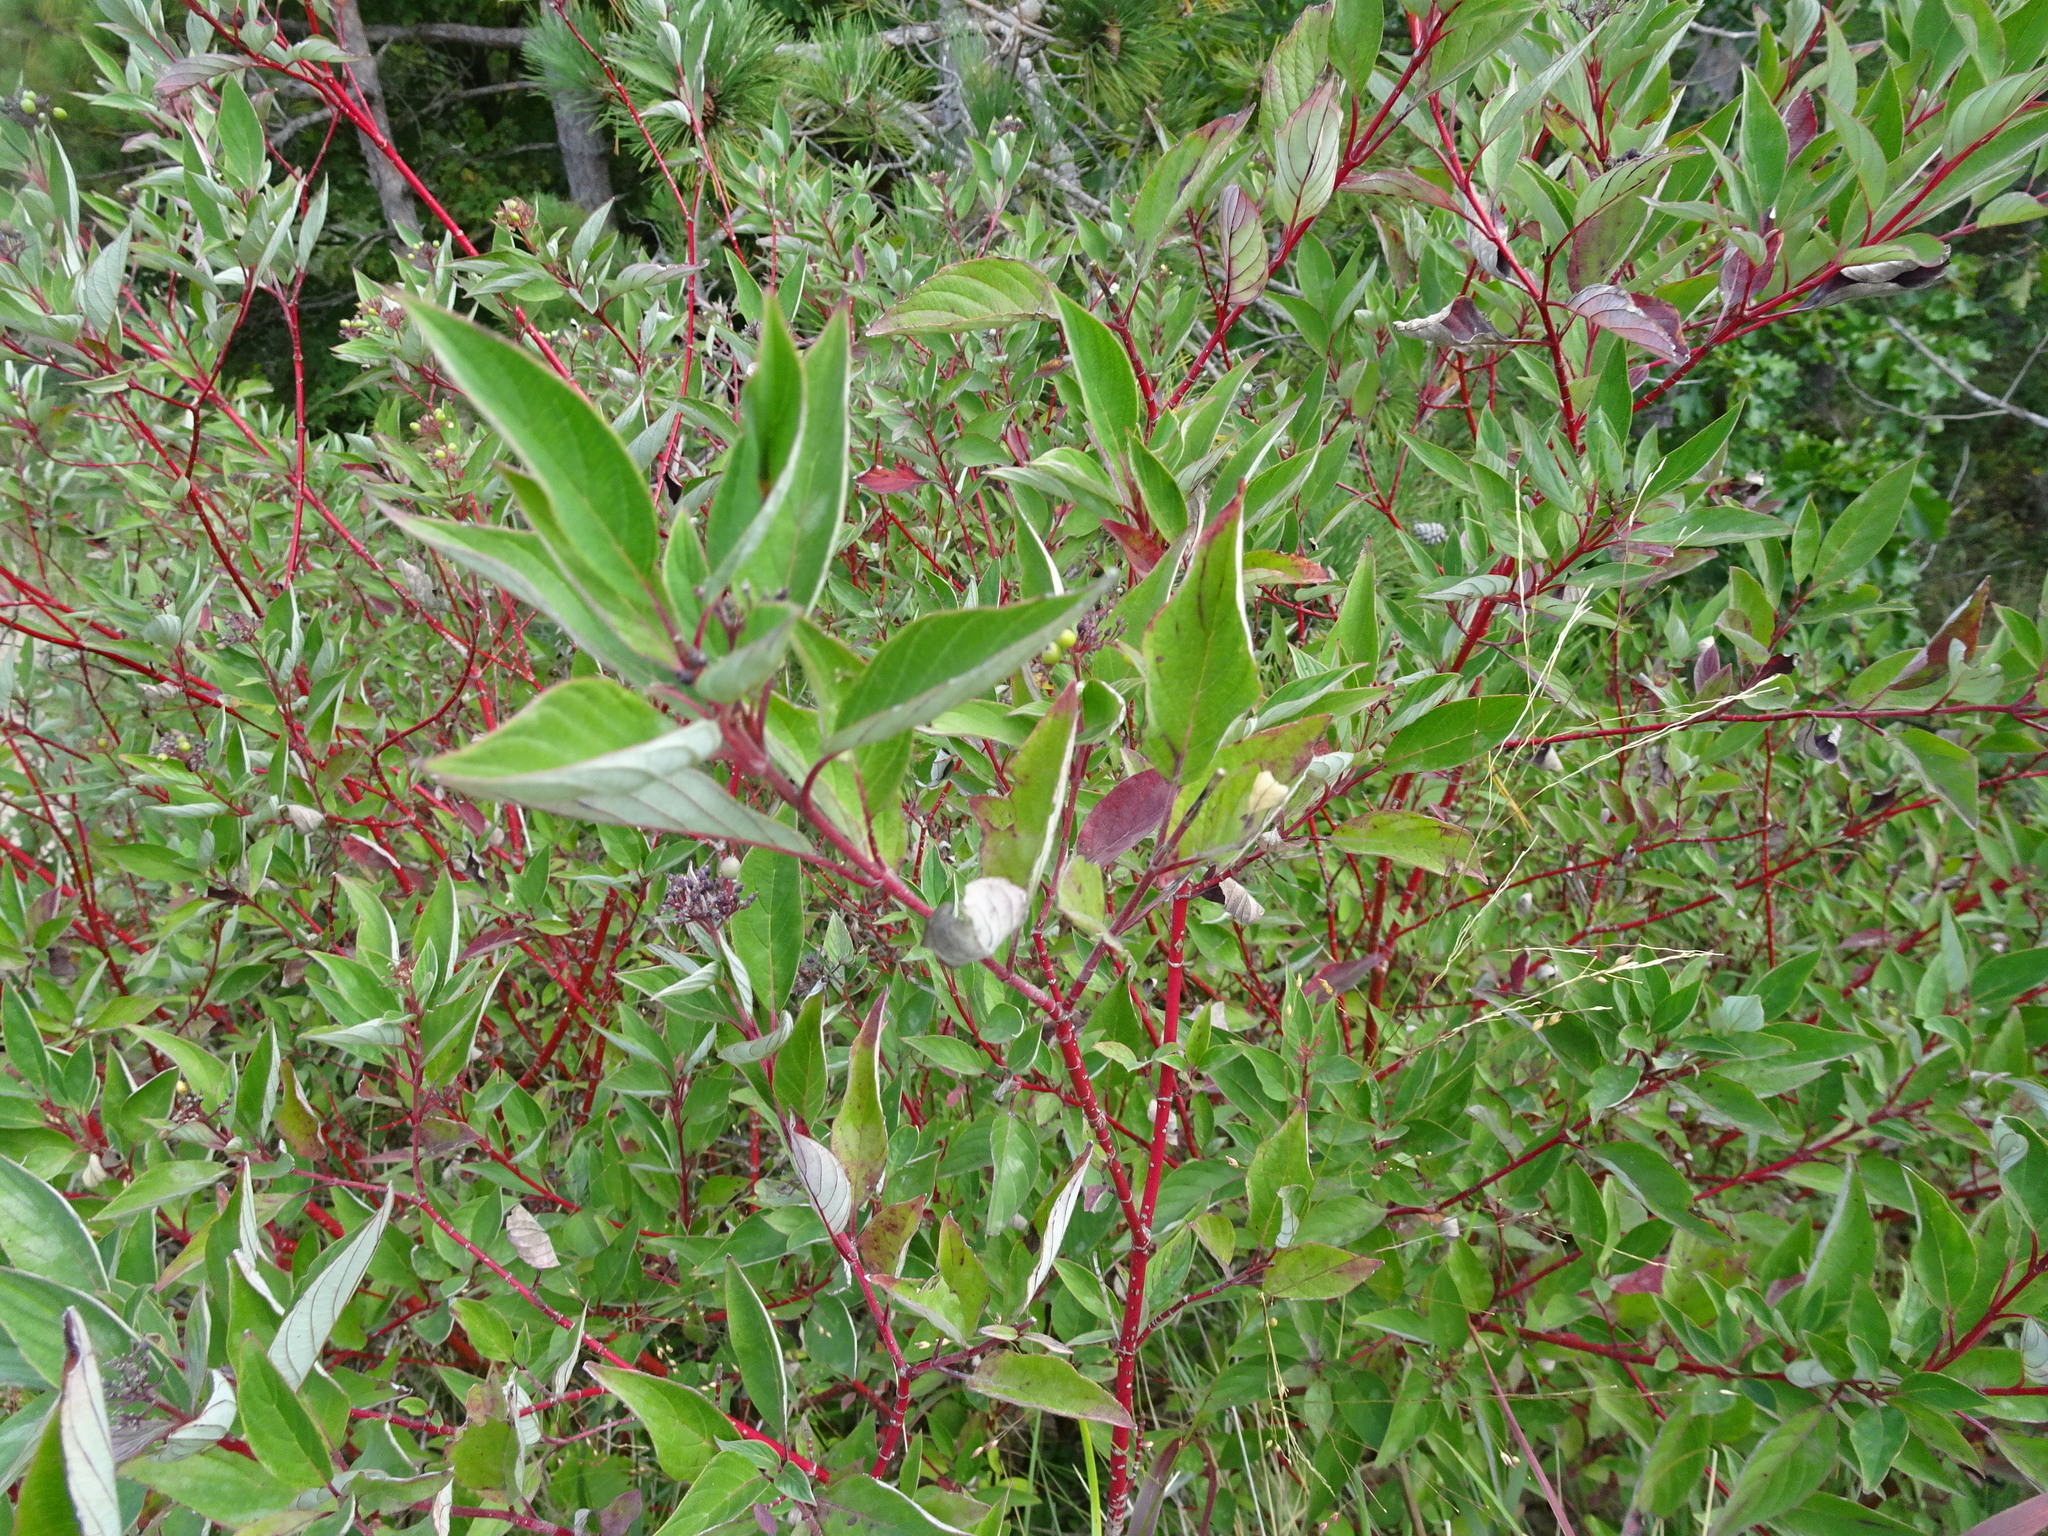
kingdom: Plantae
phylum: Tracheophyta
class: Magnoliopsida
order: Cornales
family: Cornaceae
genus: Cornus
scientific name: Cornus sericea
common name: Red-osier dogwood
